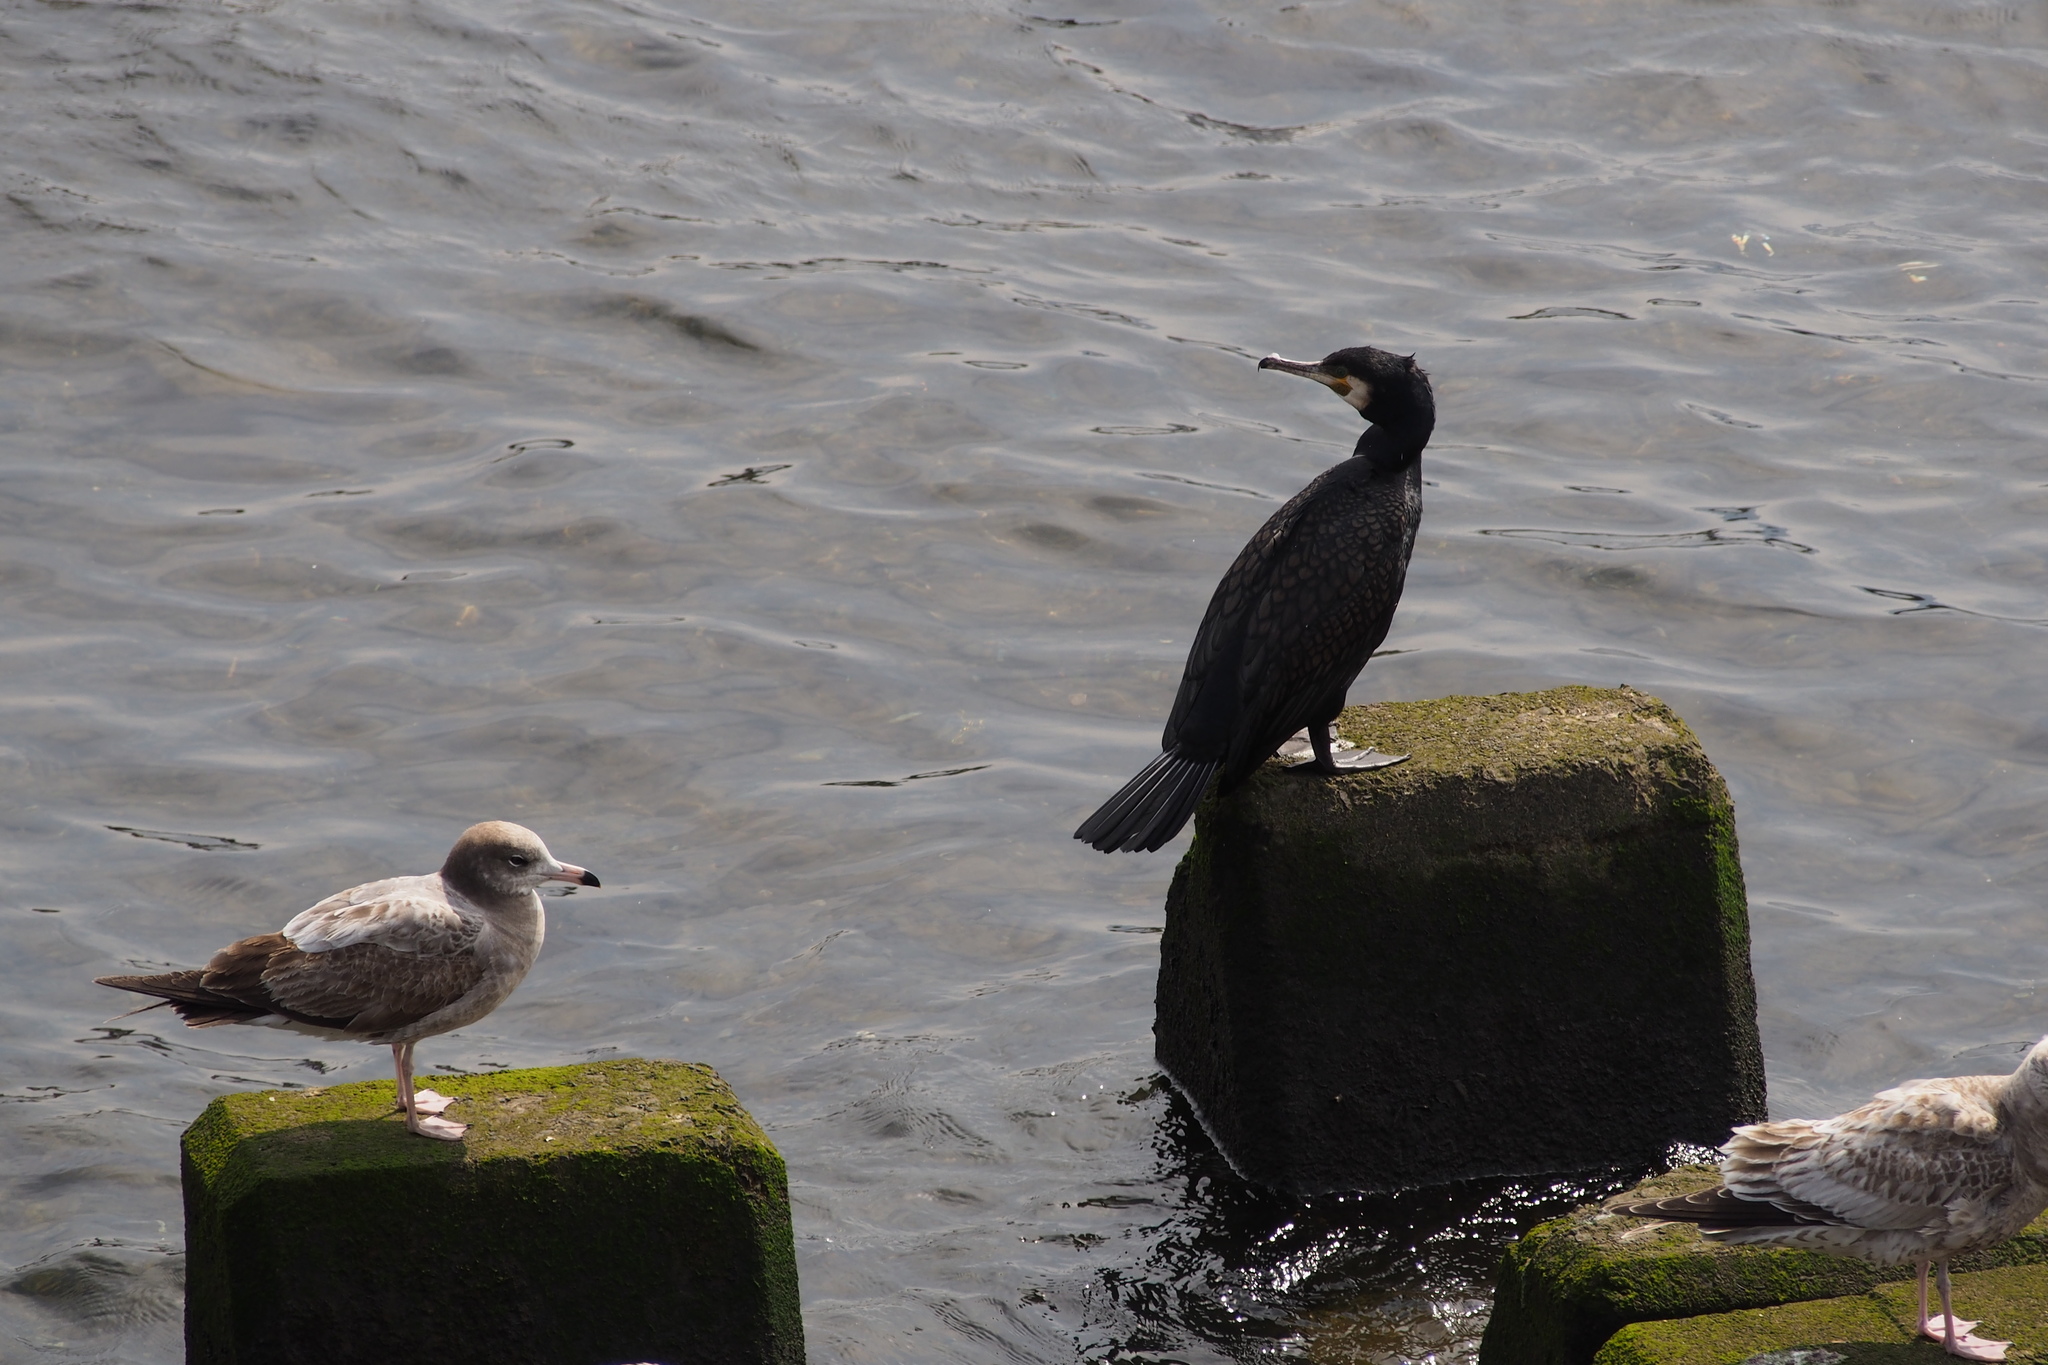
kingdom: Animalia
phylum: Chordata
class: Aves
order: Suliformes
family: Phalacrocoracidae
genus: Phalacrocorax
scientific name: Phalacrocorax carbo
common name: Great cormorant
